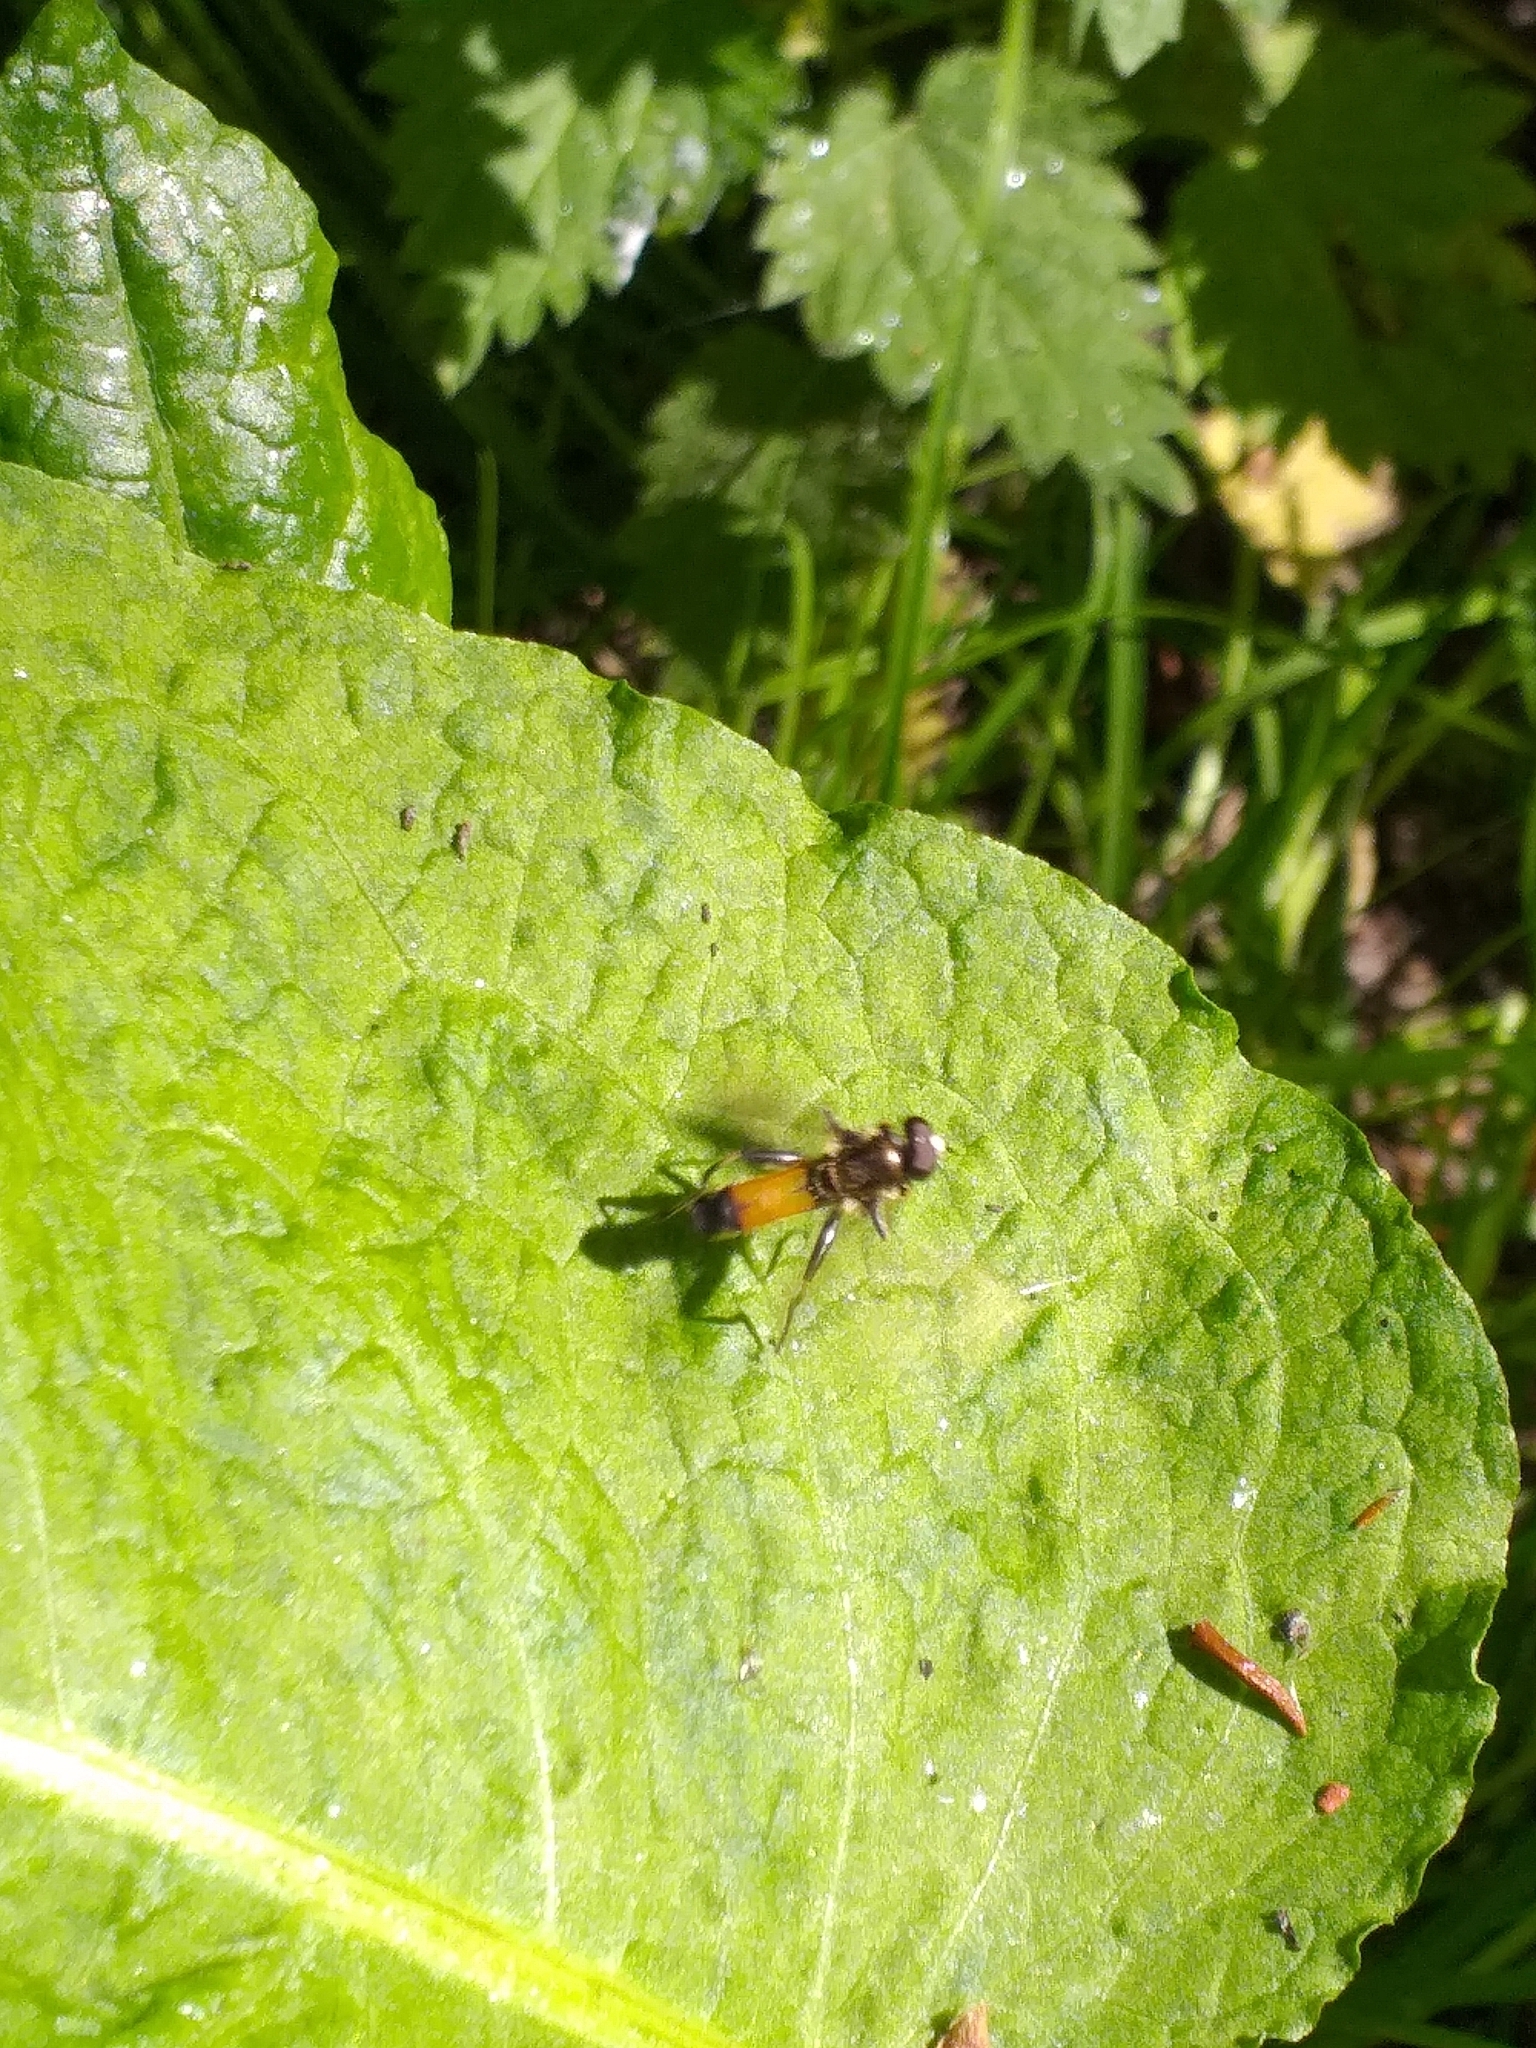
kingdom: Animalia
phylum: Arthropoda
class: Insecta
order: Diptera
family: Syrphidae
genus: Xylota
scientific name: Xylota segnis
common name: Brown-toed forest fly
